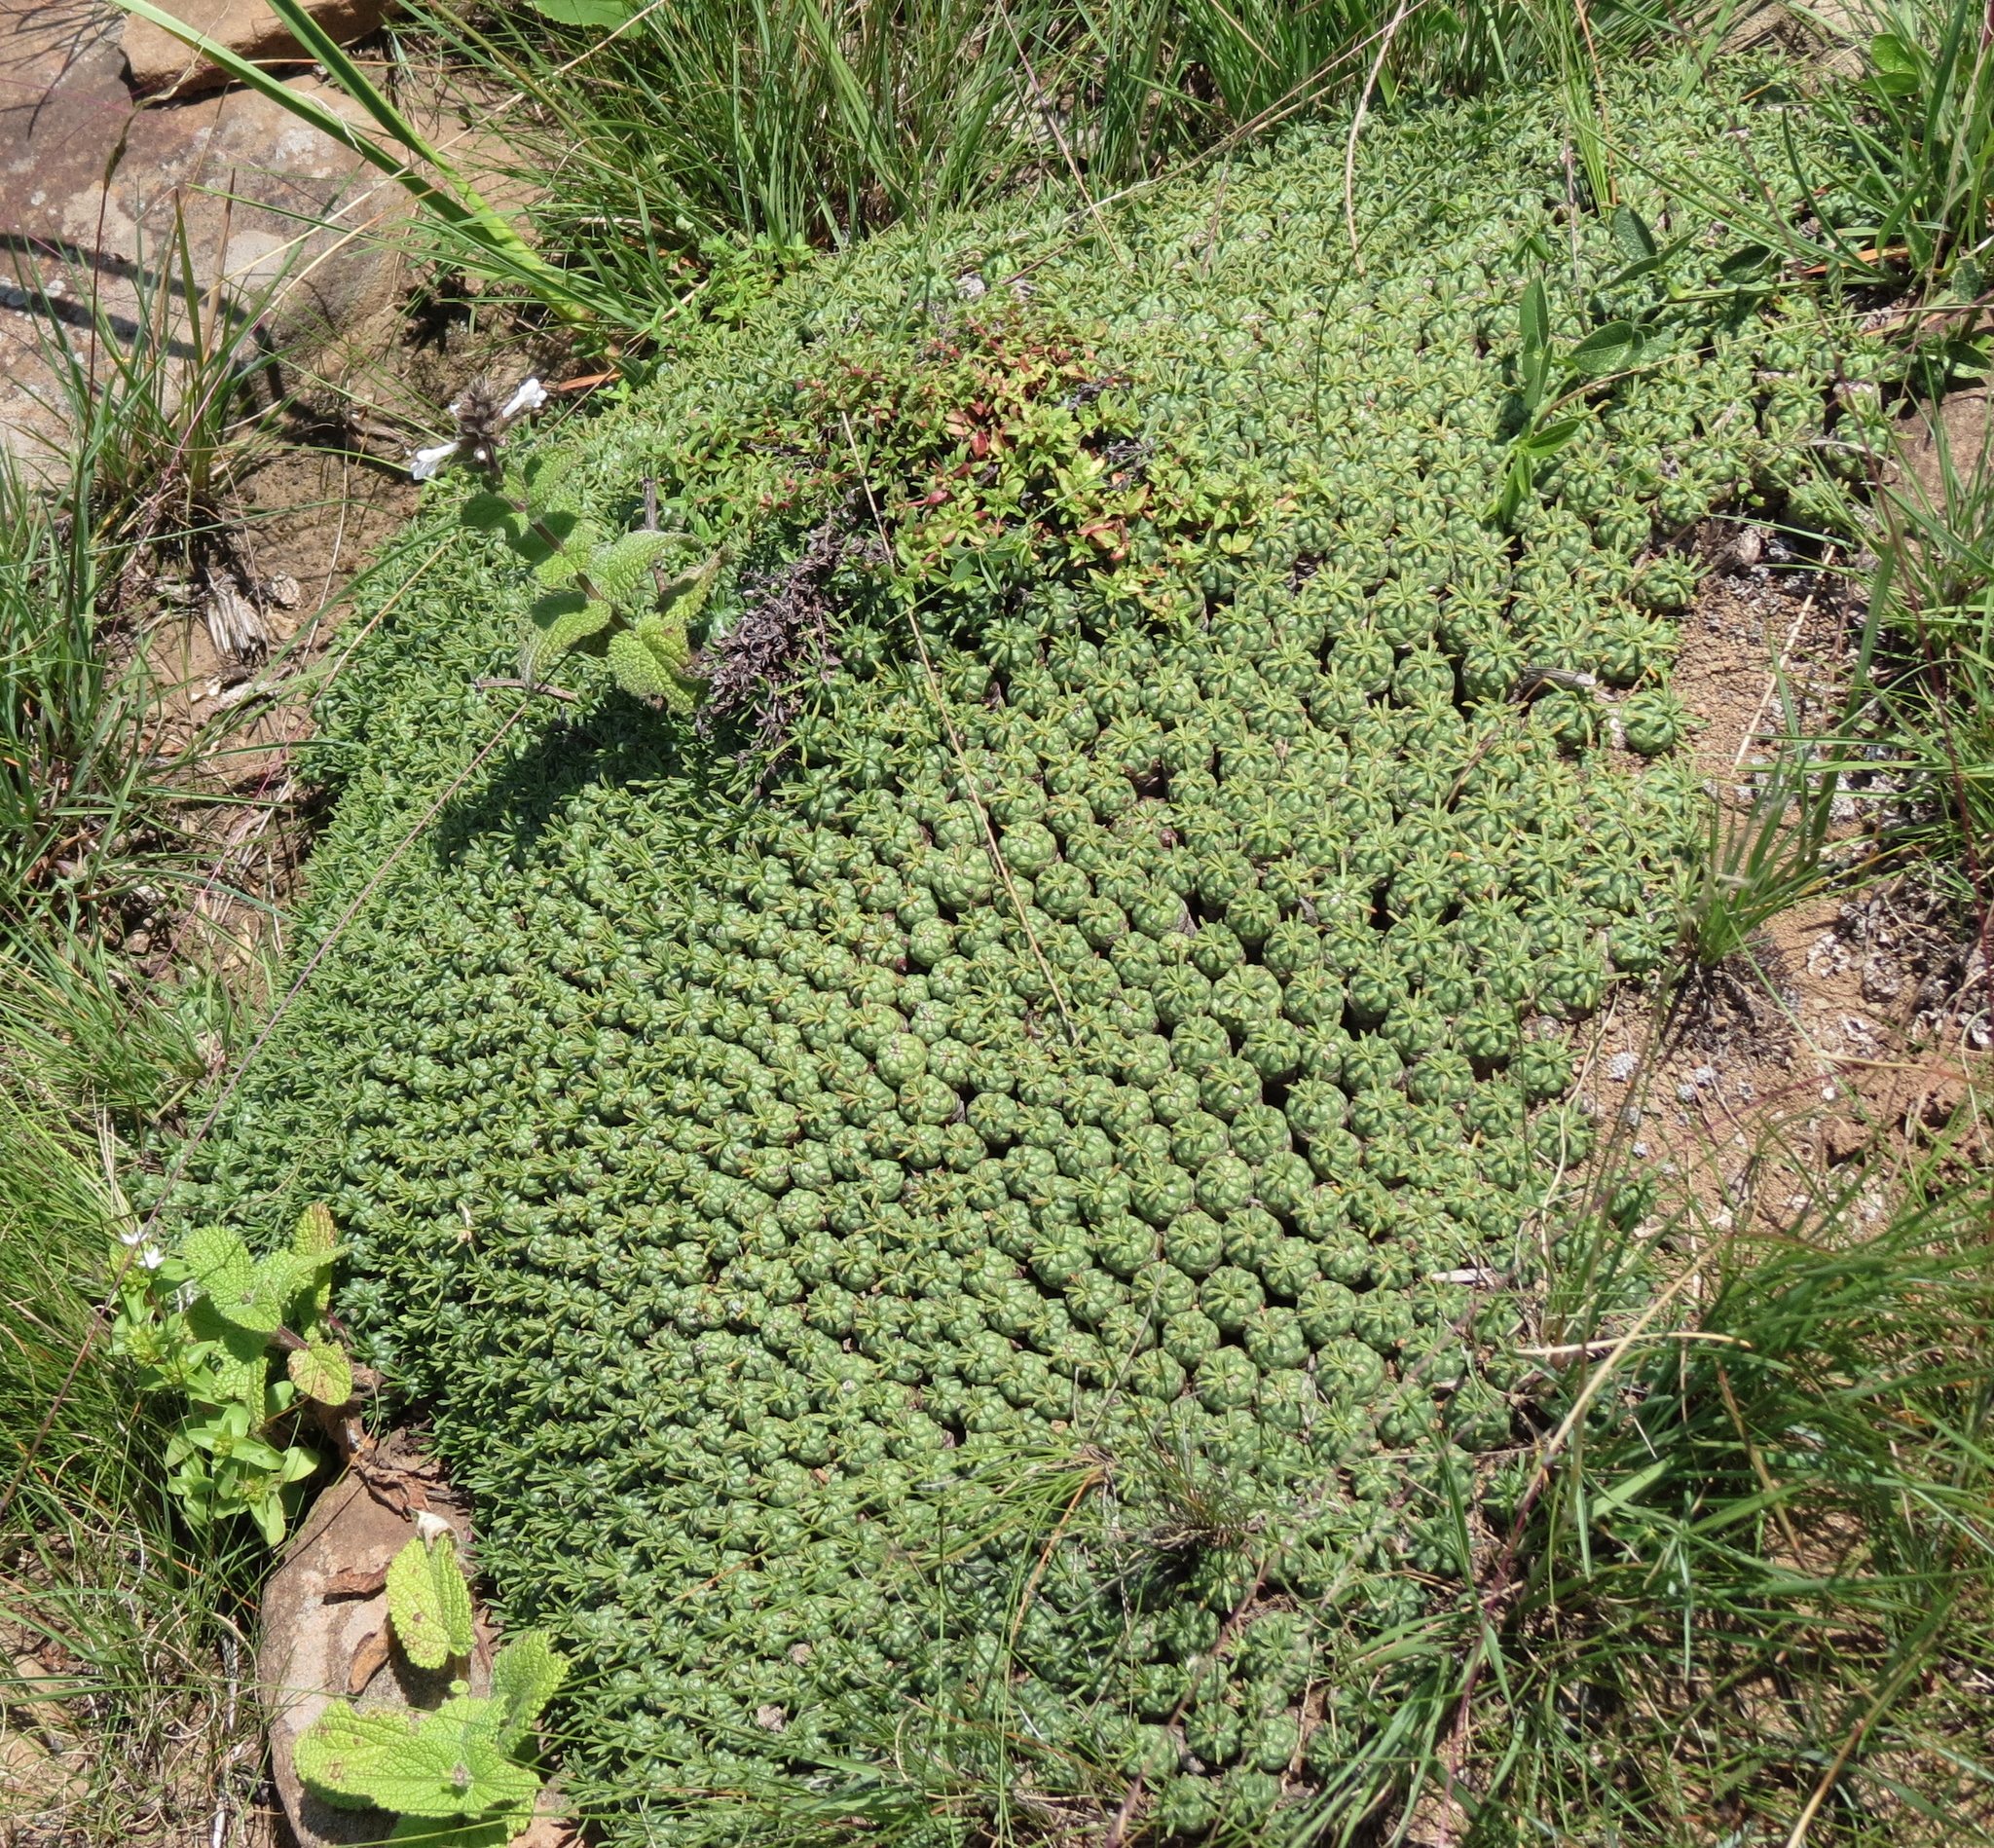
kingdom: Plantae
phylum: Tracheophyta
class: Magnoliopsida
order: Malpighiales
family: Euphorbiaceae
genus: Euphorbia
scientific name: Euphorbia clavarioides
